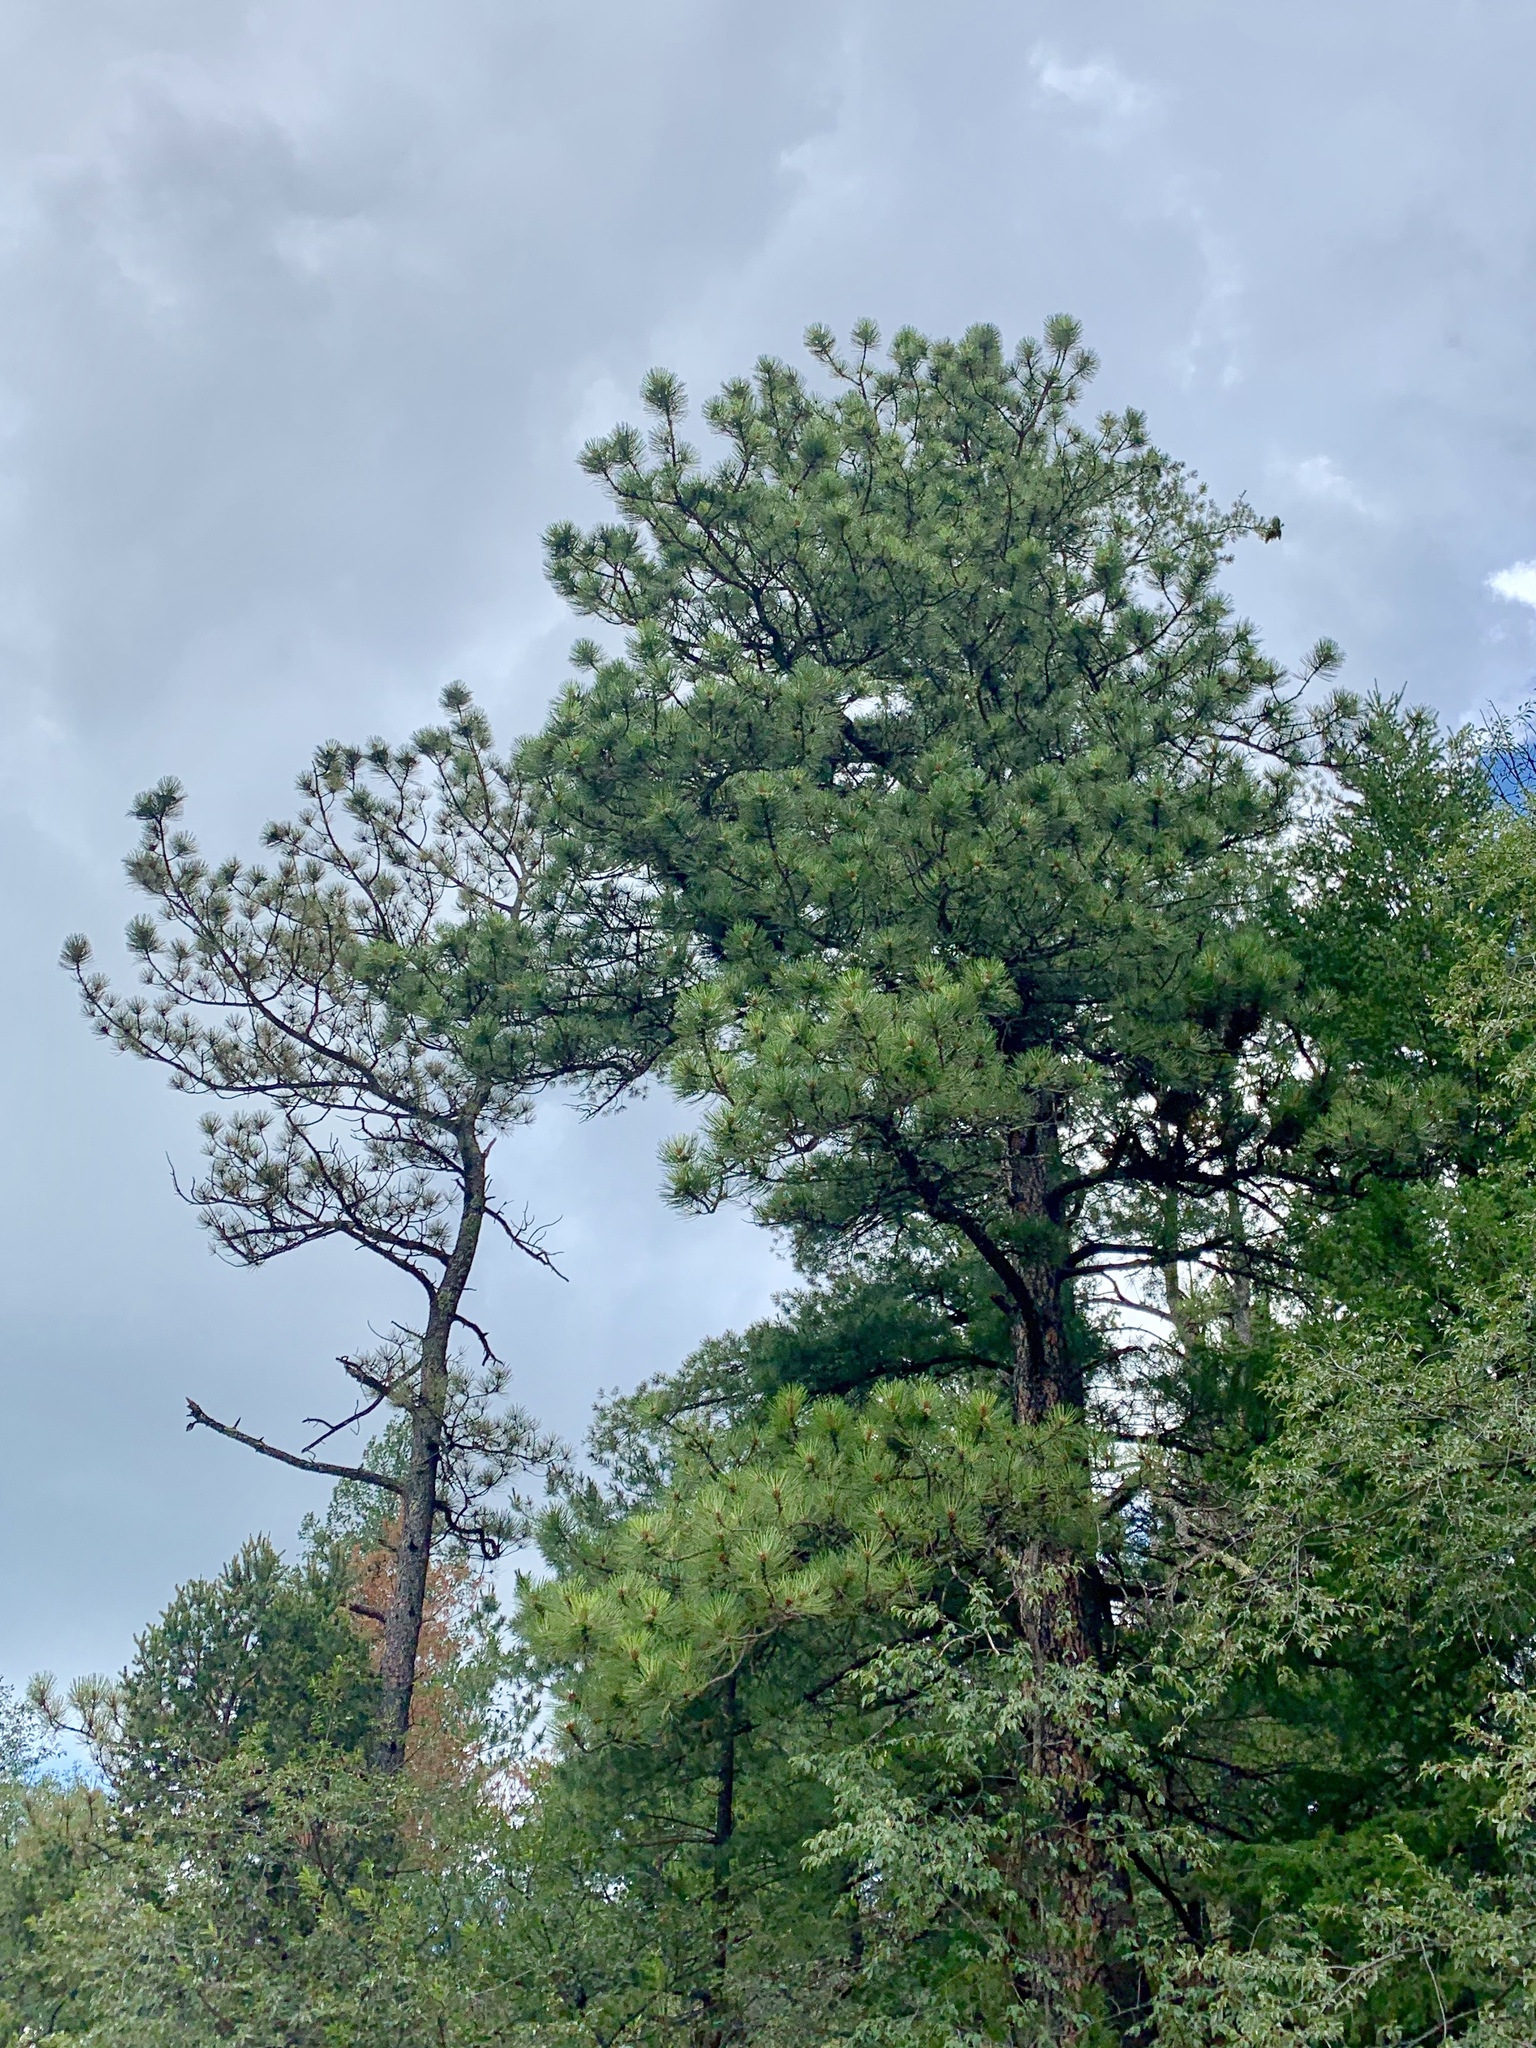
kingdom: Plantae
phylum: Tracheophyta
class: Pinopsida
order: Pinales
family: Pinaceae
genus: Pinus
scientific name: Pinus ponderosa
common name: Western yellow-pine
